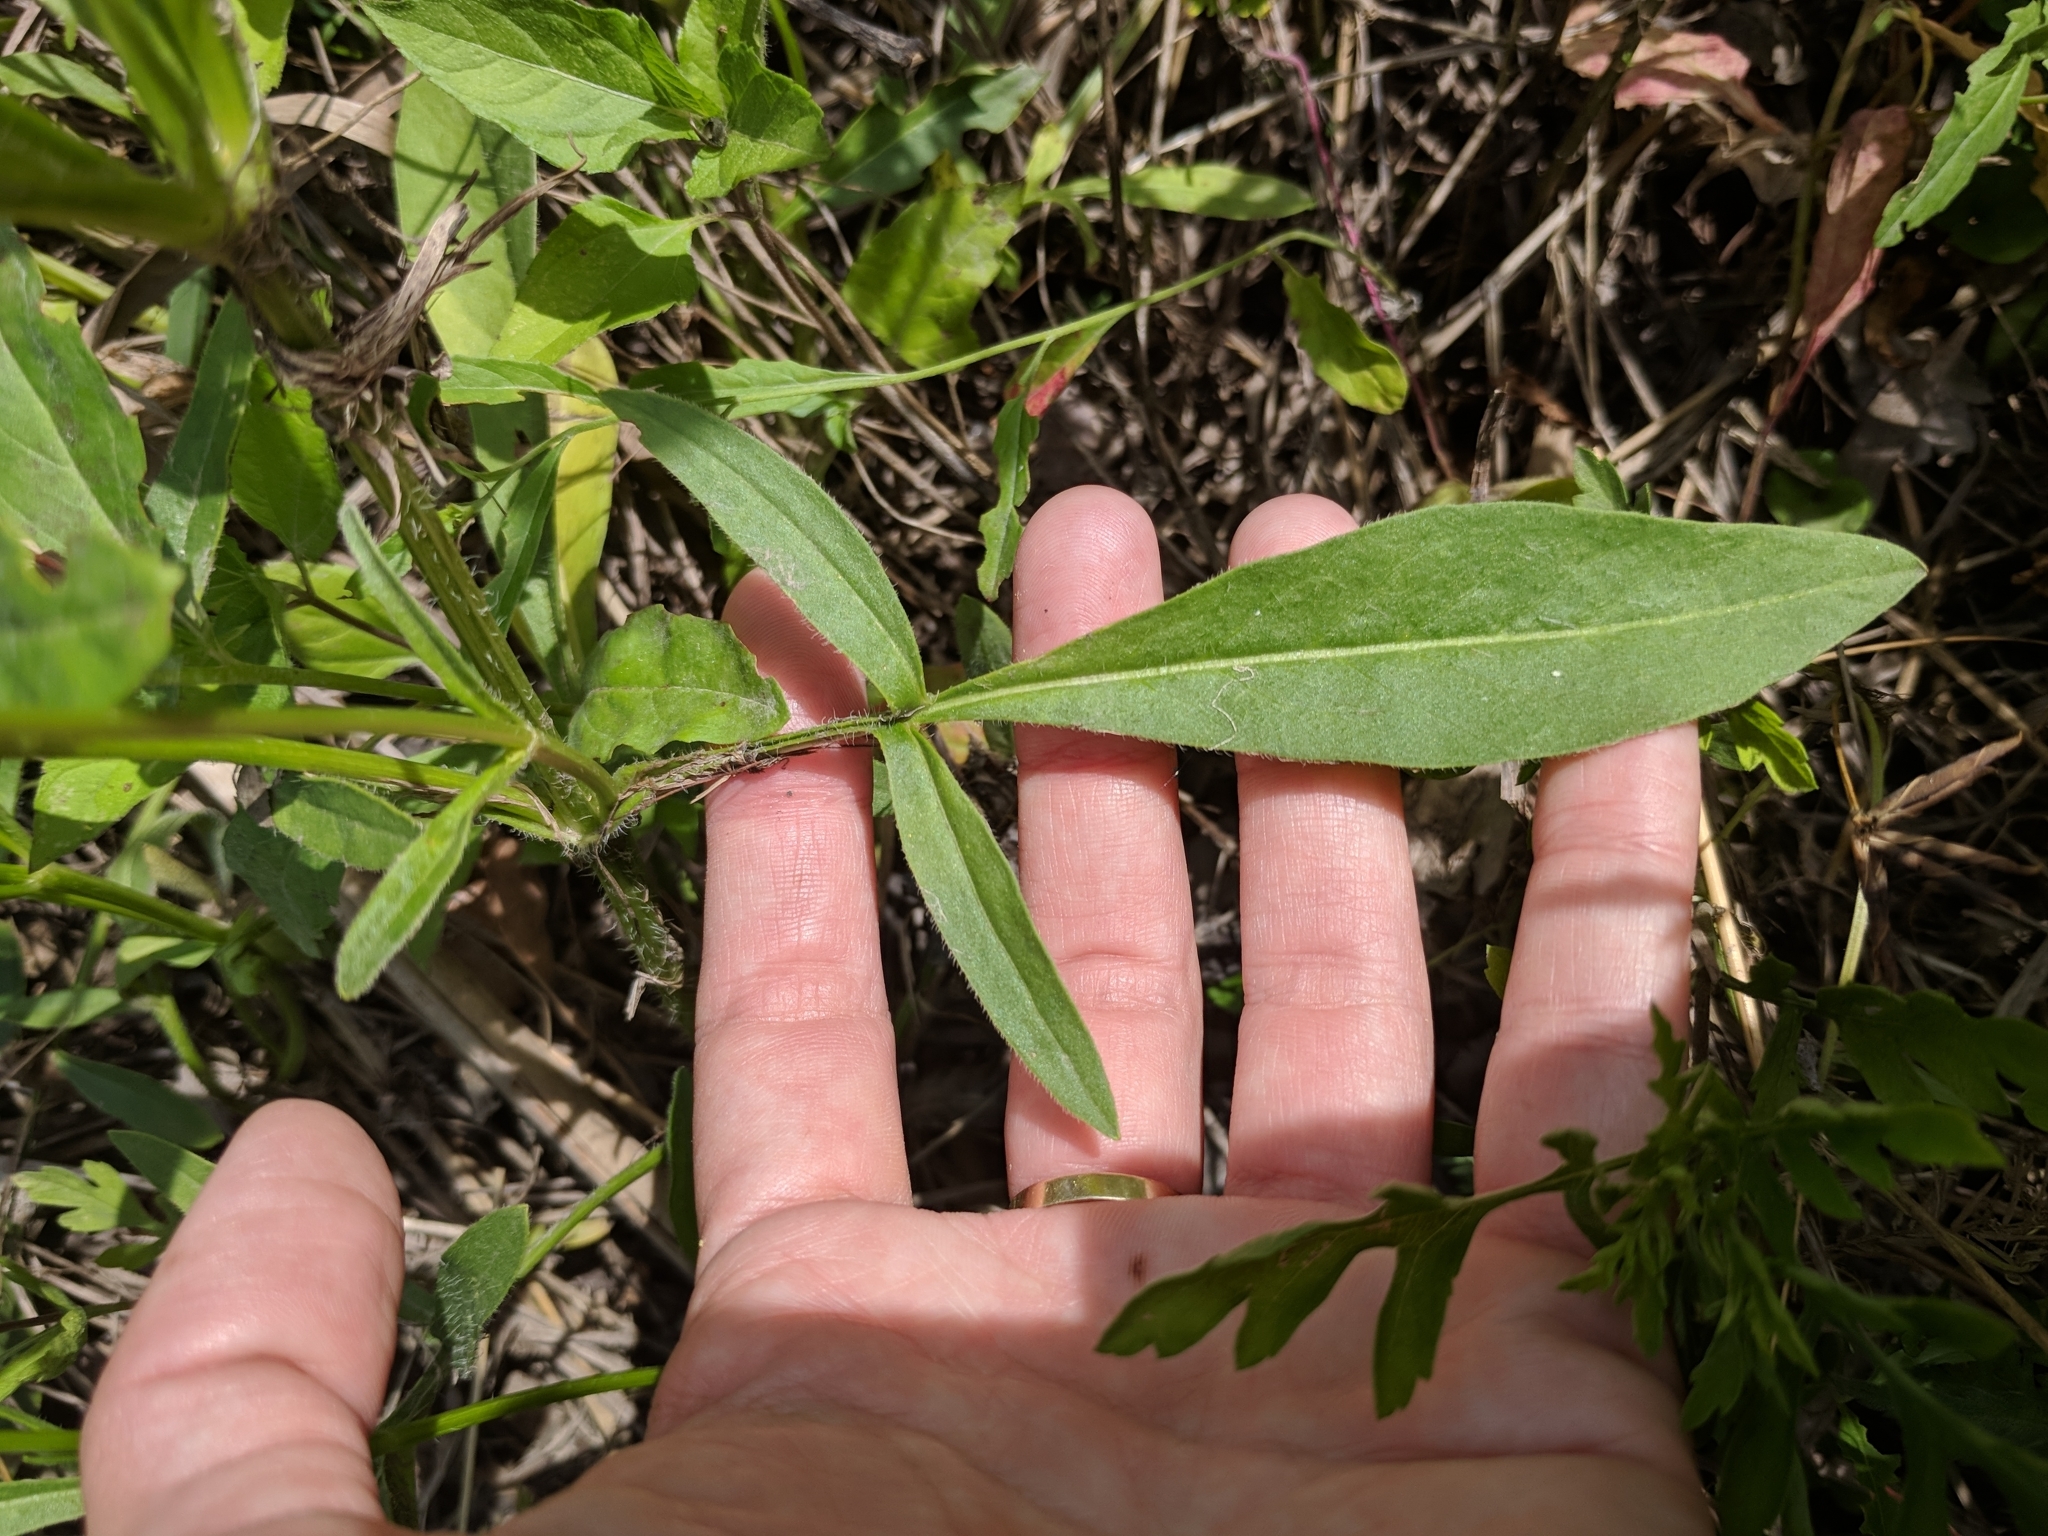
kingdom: Plantae
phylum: Tracheophyta
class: Magnoliopsida
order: Asterales
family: Asteraceae
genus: Coreopsis
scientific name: Coreopsis grandiflora
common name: Large-flowered tickseed
